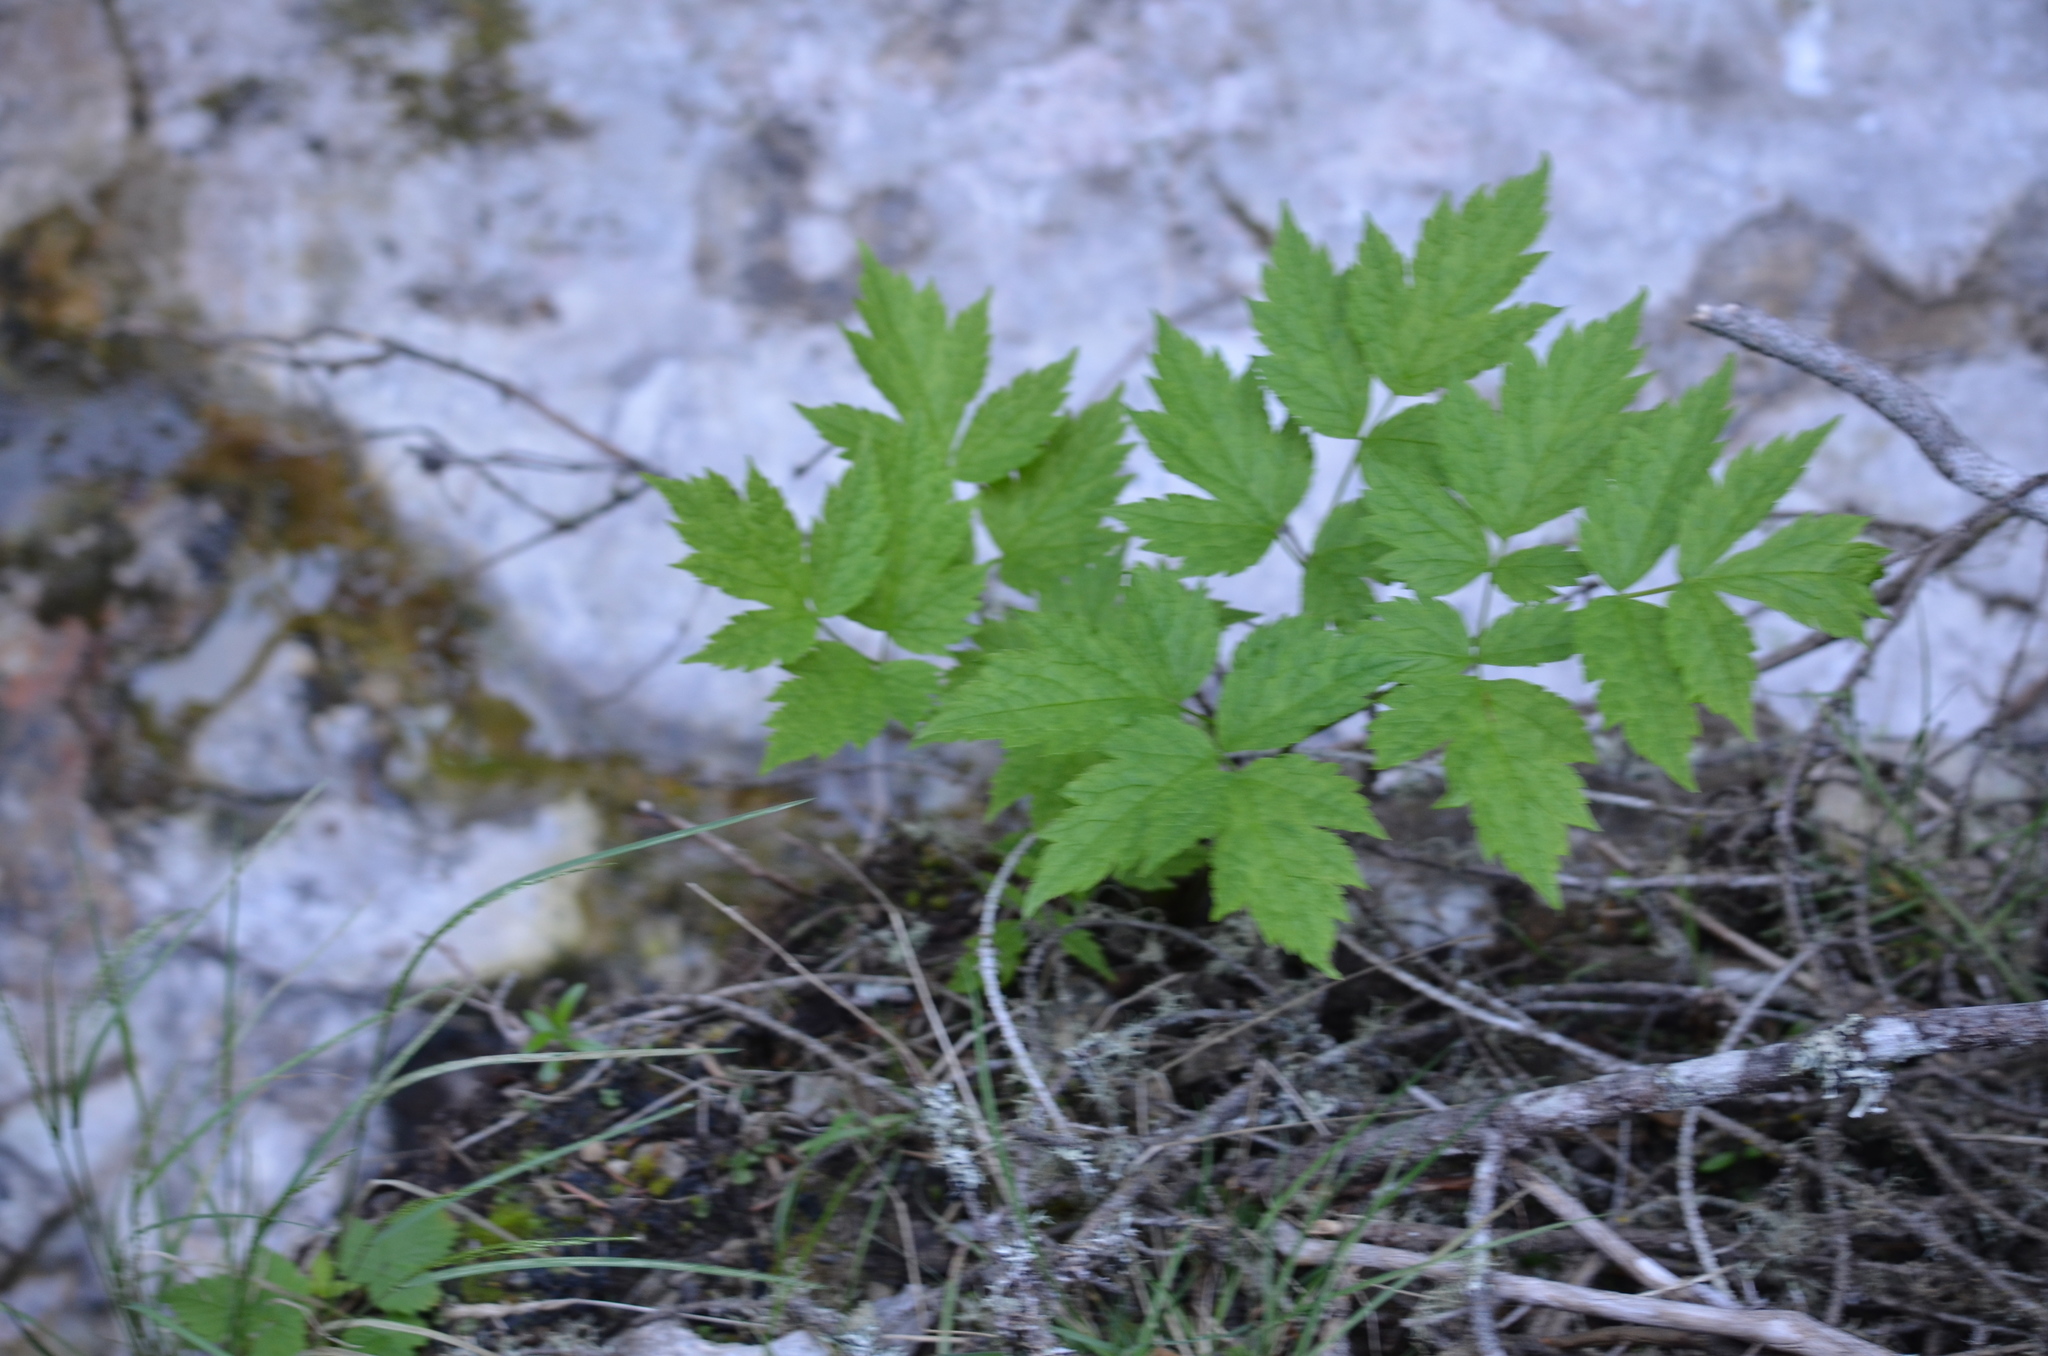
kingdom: Plantae
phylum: Tracheophyta
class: Magnoliopsida
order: Ranunculales
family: Ranunculaceae
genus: Actaea
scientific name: Actaea rubra
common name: Red baneberry
